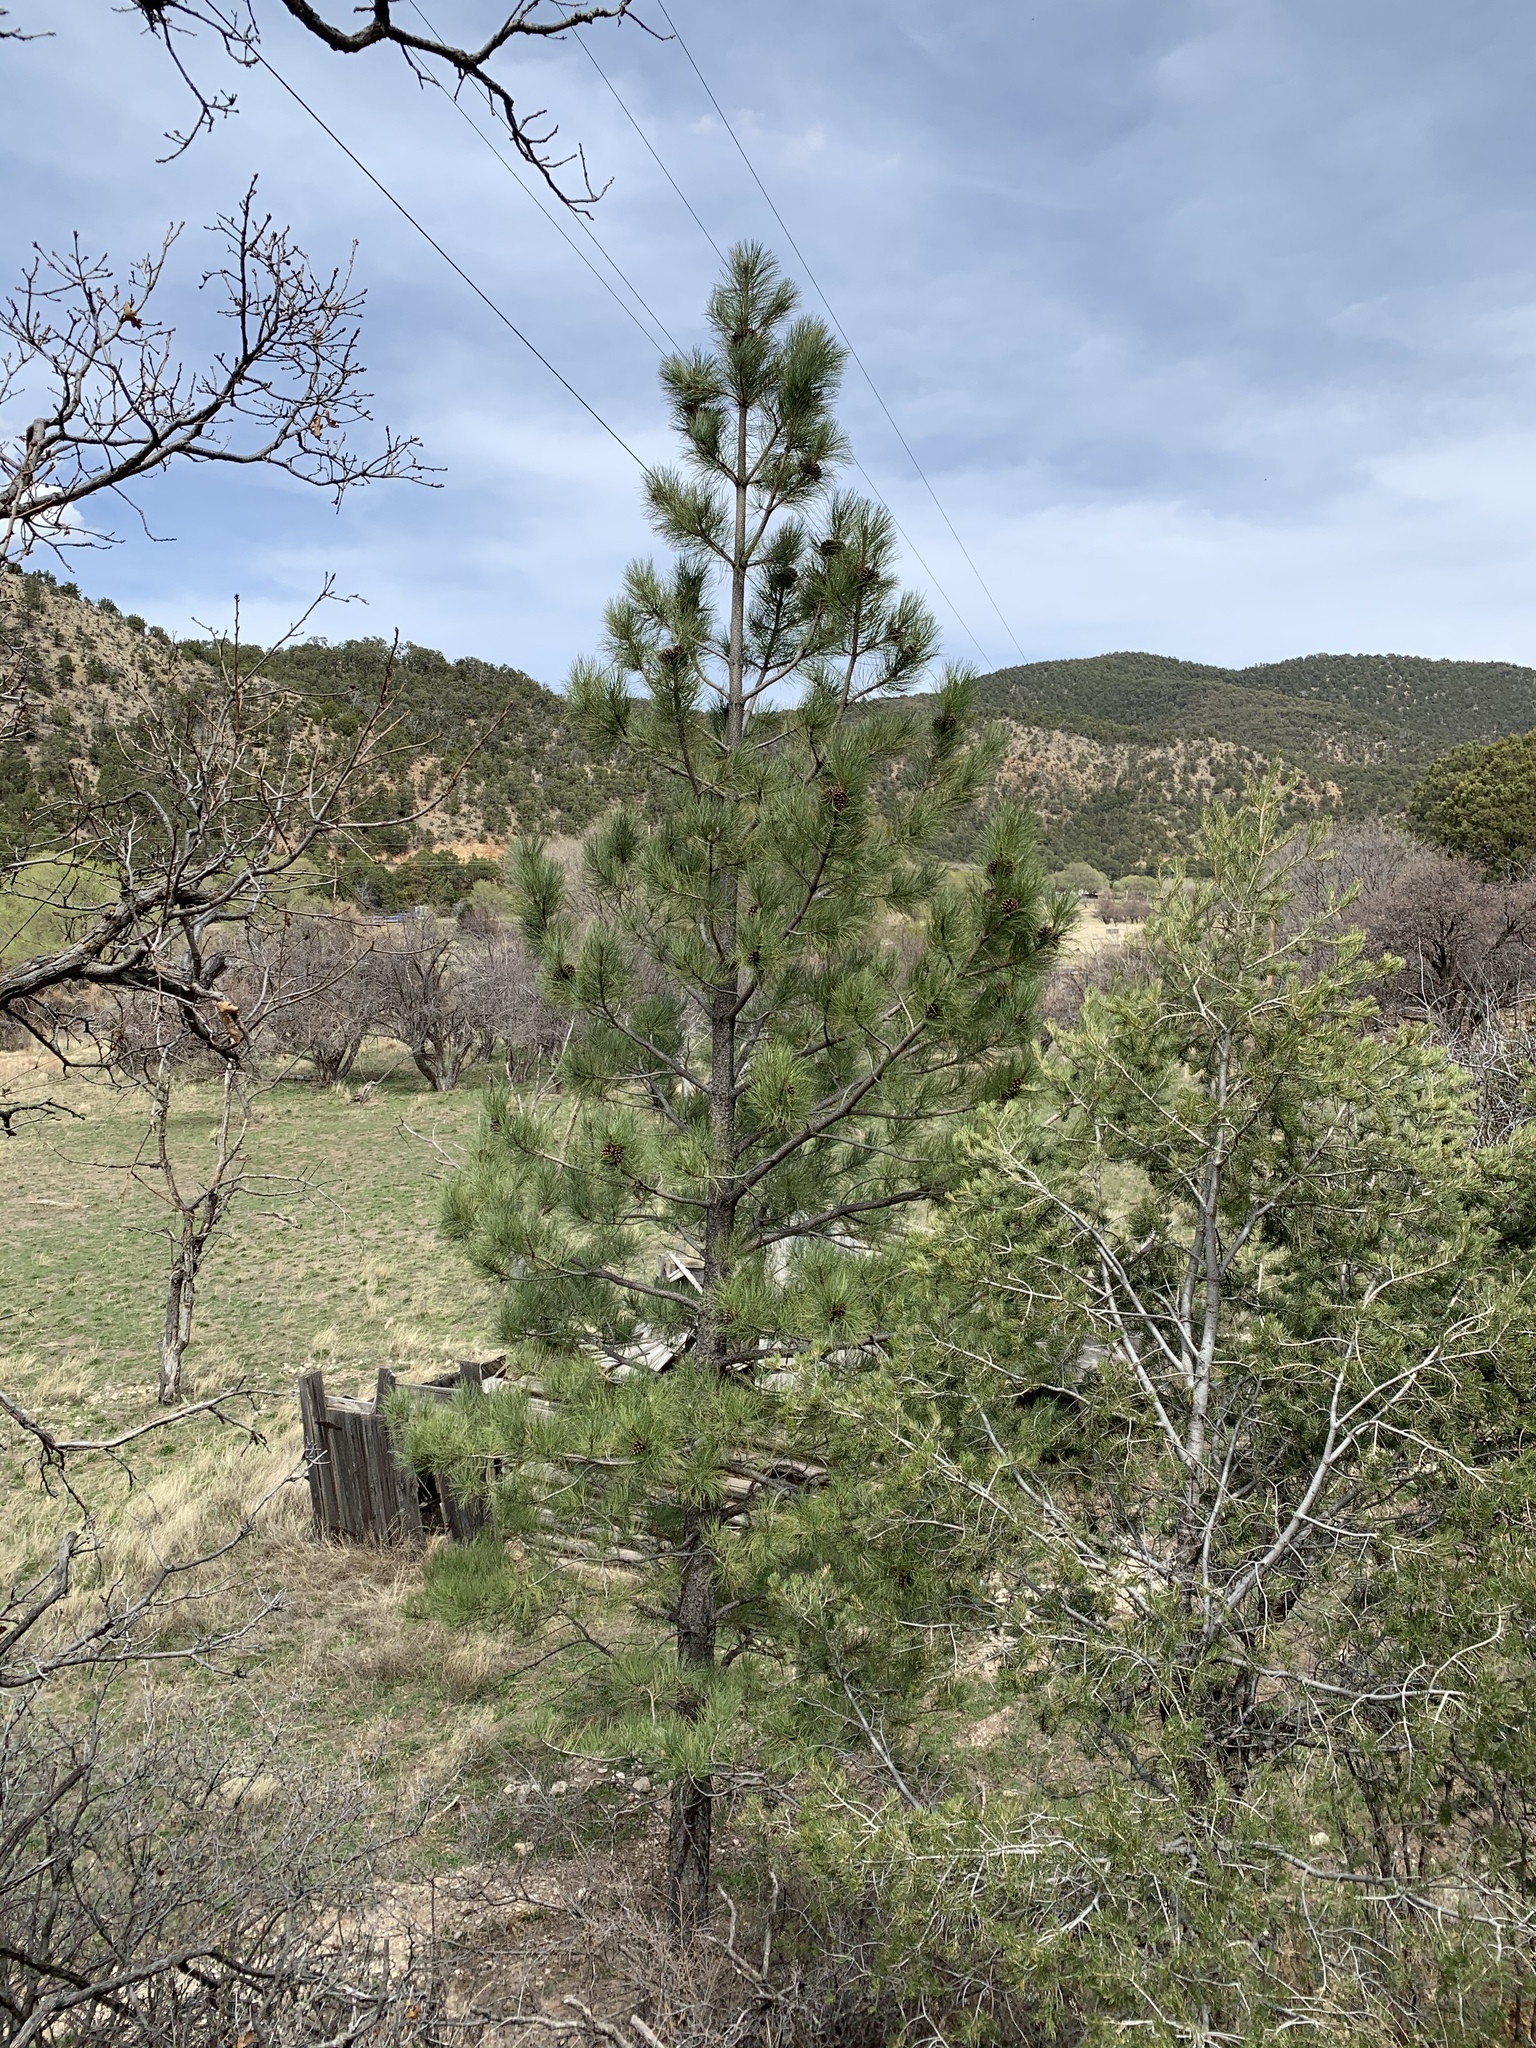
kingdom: Plantae
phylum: Tracheophyta
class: Pinopsida
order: Pinales
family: Pinaceae
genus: Pinus
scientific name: Pinus ponderosa
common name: Western yellow-pine
